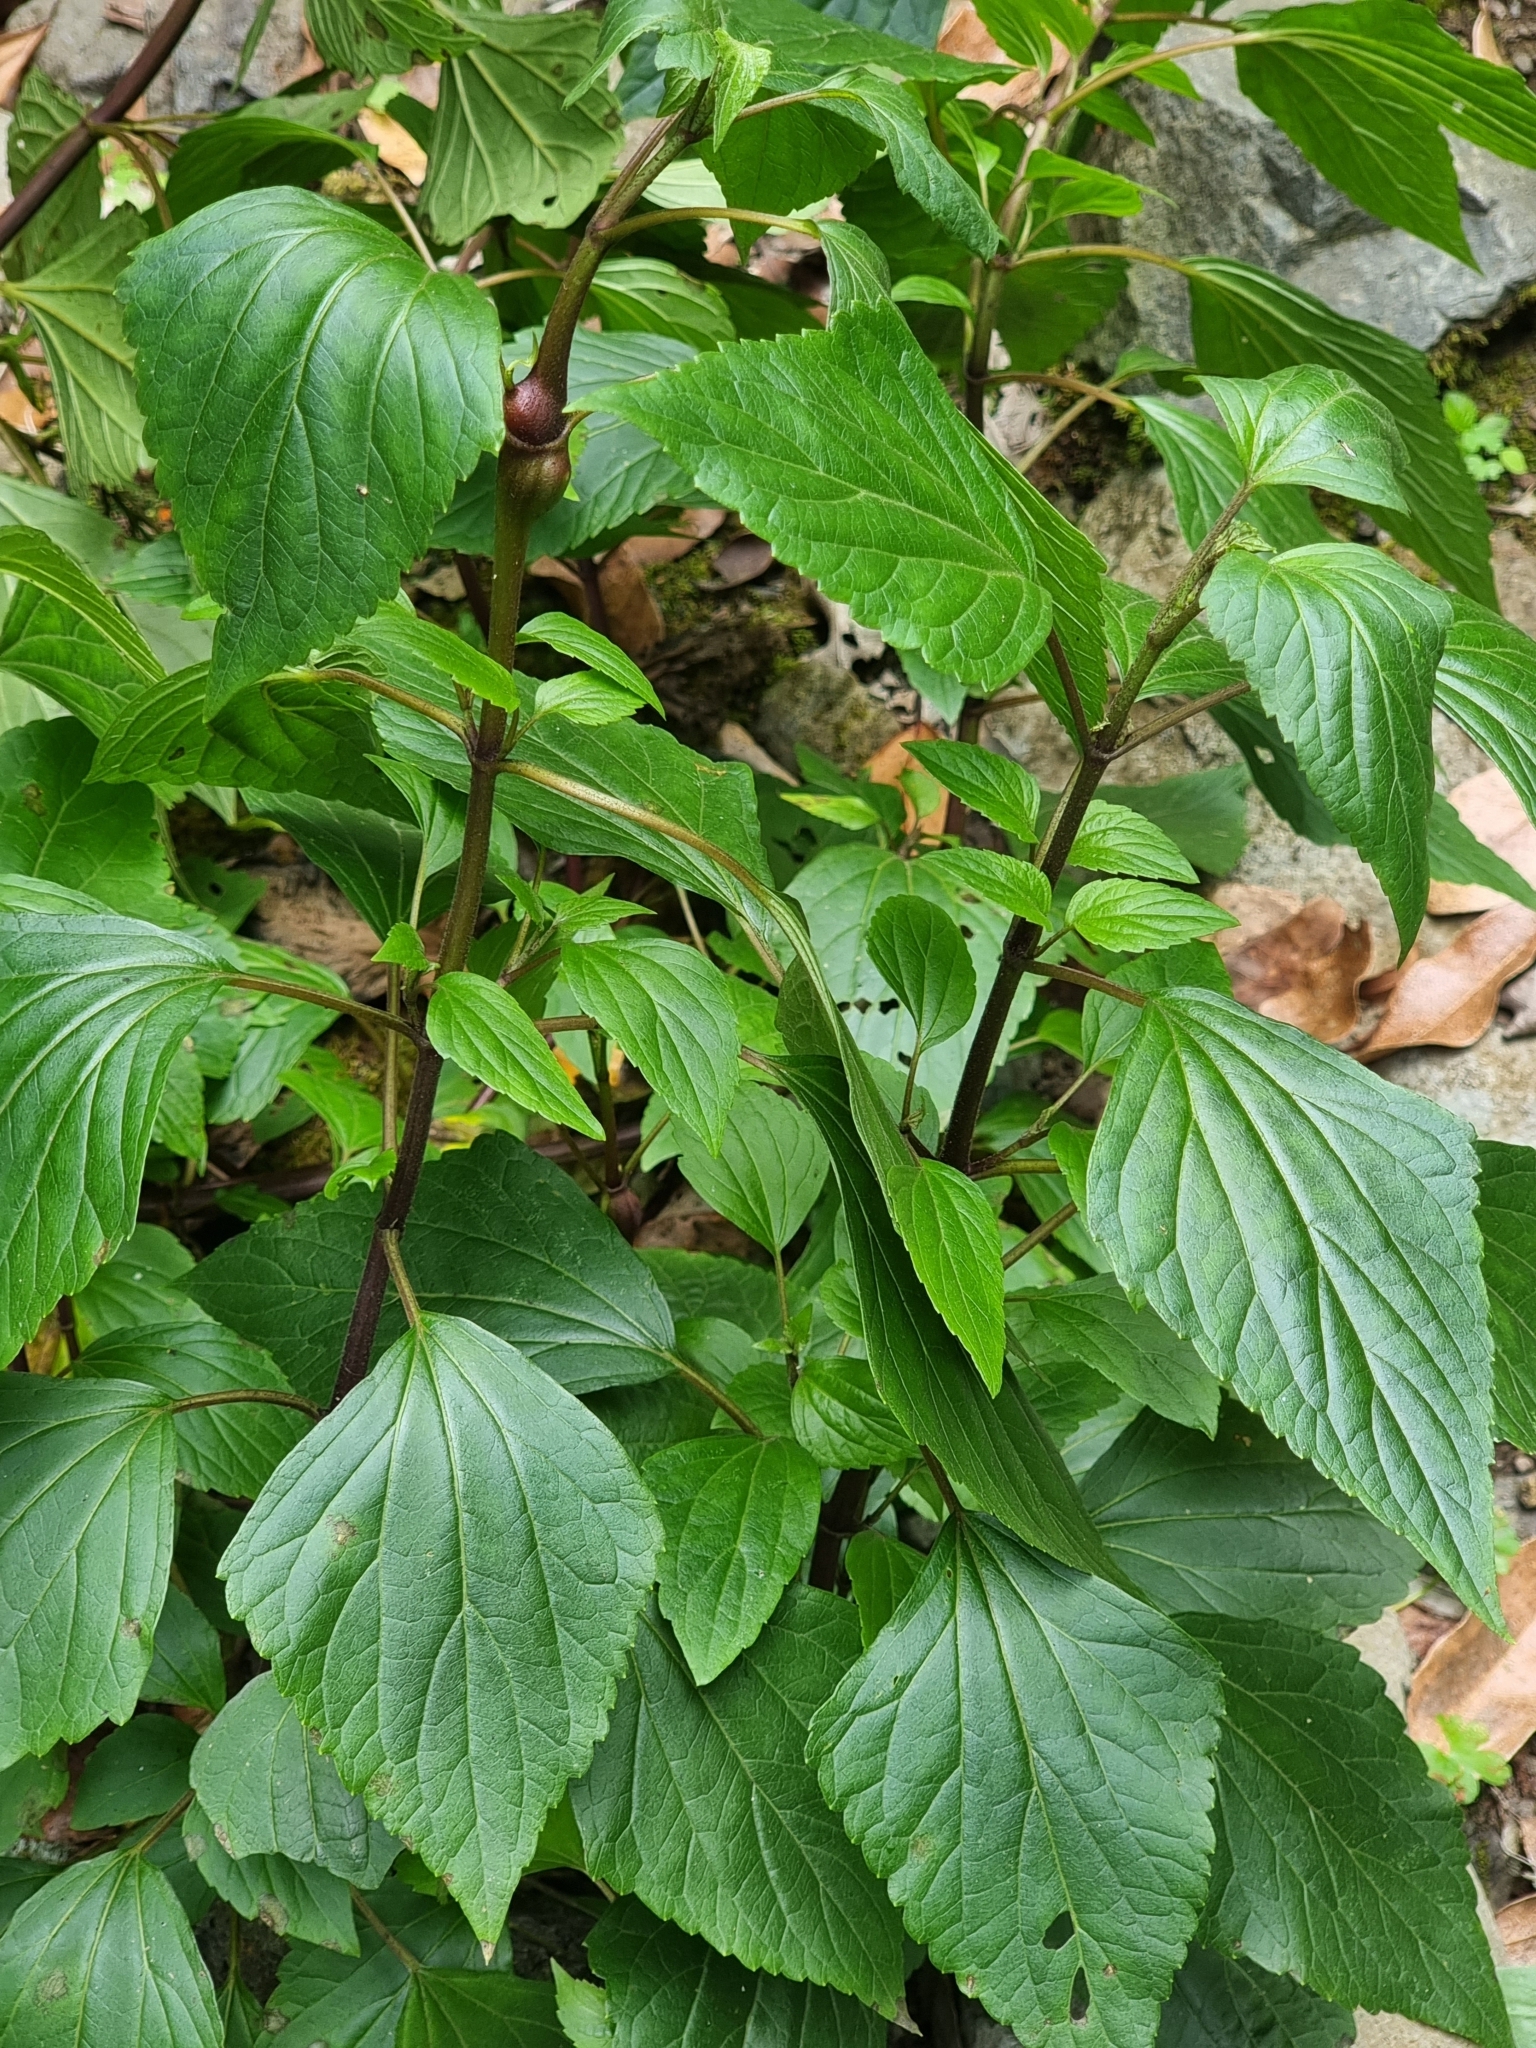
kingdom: Plantae
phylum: Tracheophyta
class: Magnoliopsida
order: Asterales
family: Asteraceae
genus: Ageratina
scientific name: Ageratina adenophora
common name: Sticky snakeroot
